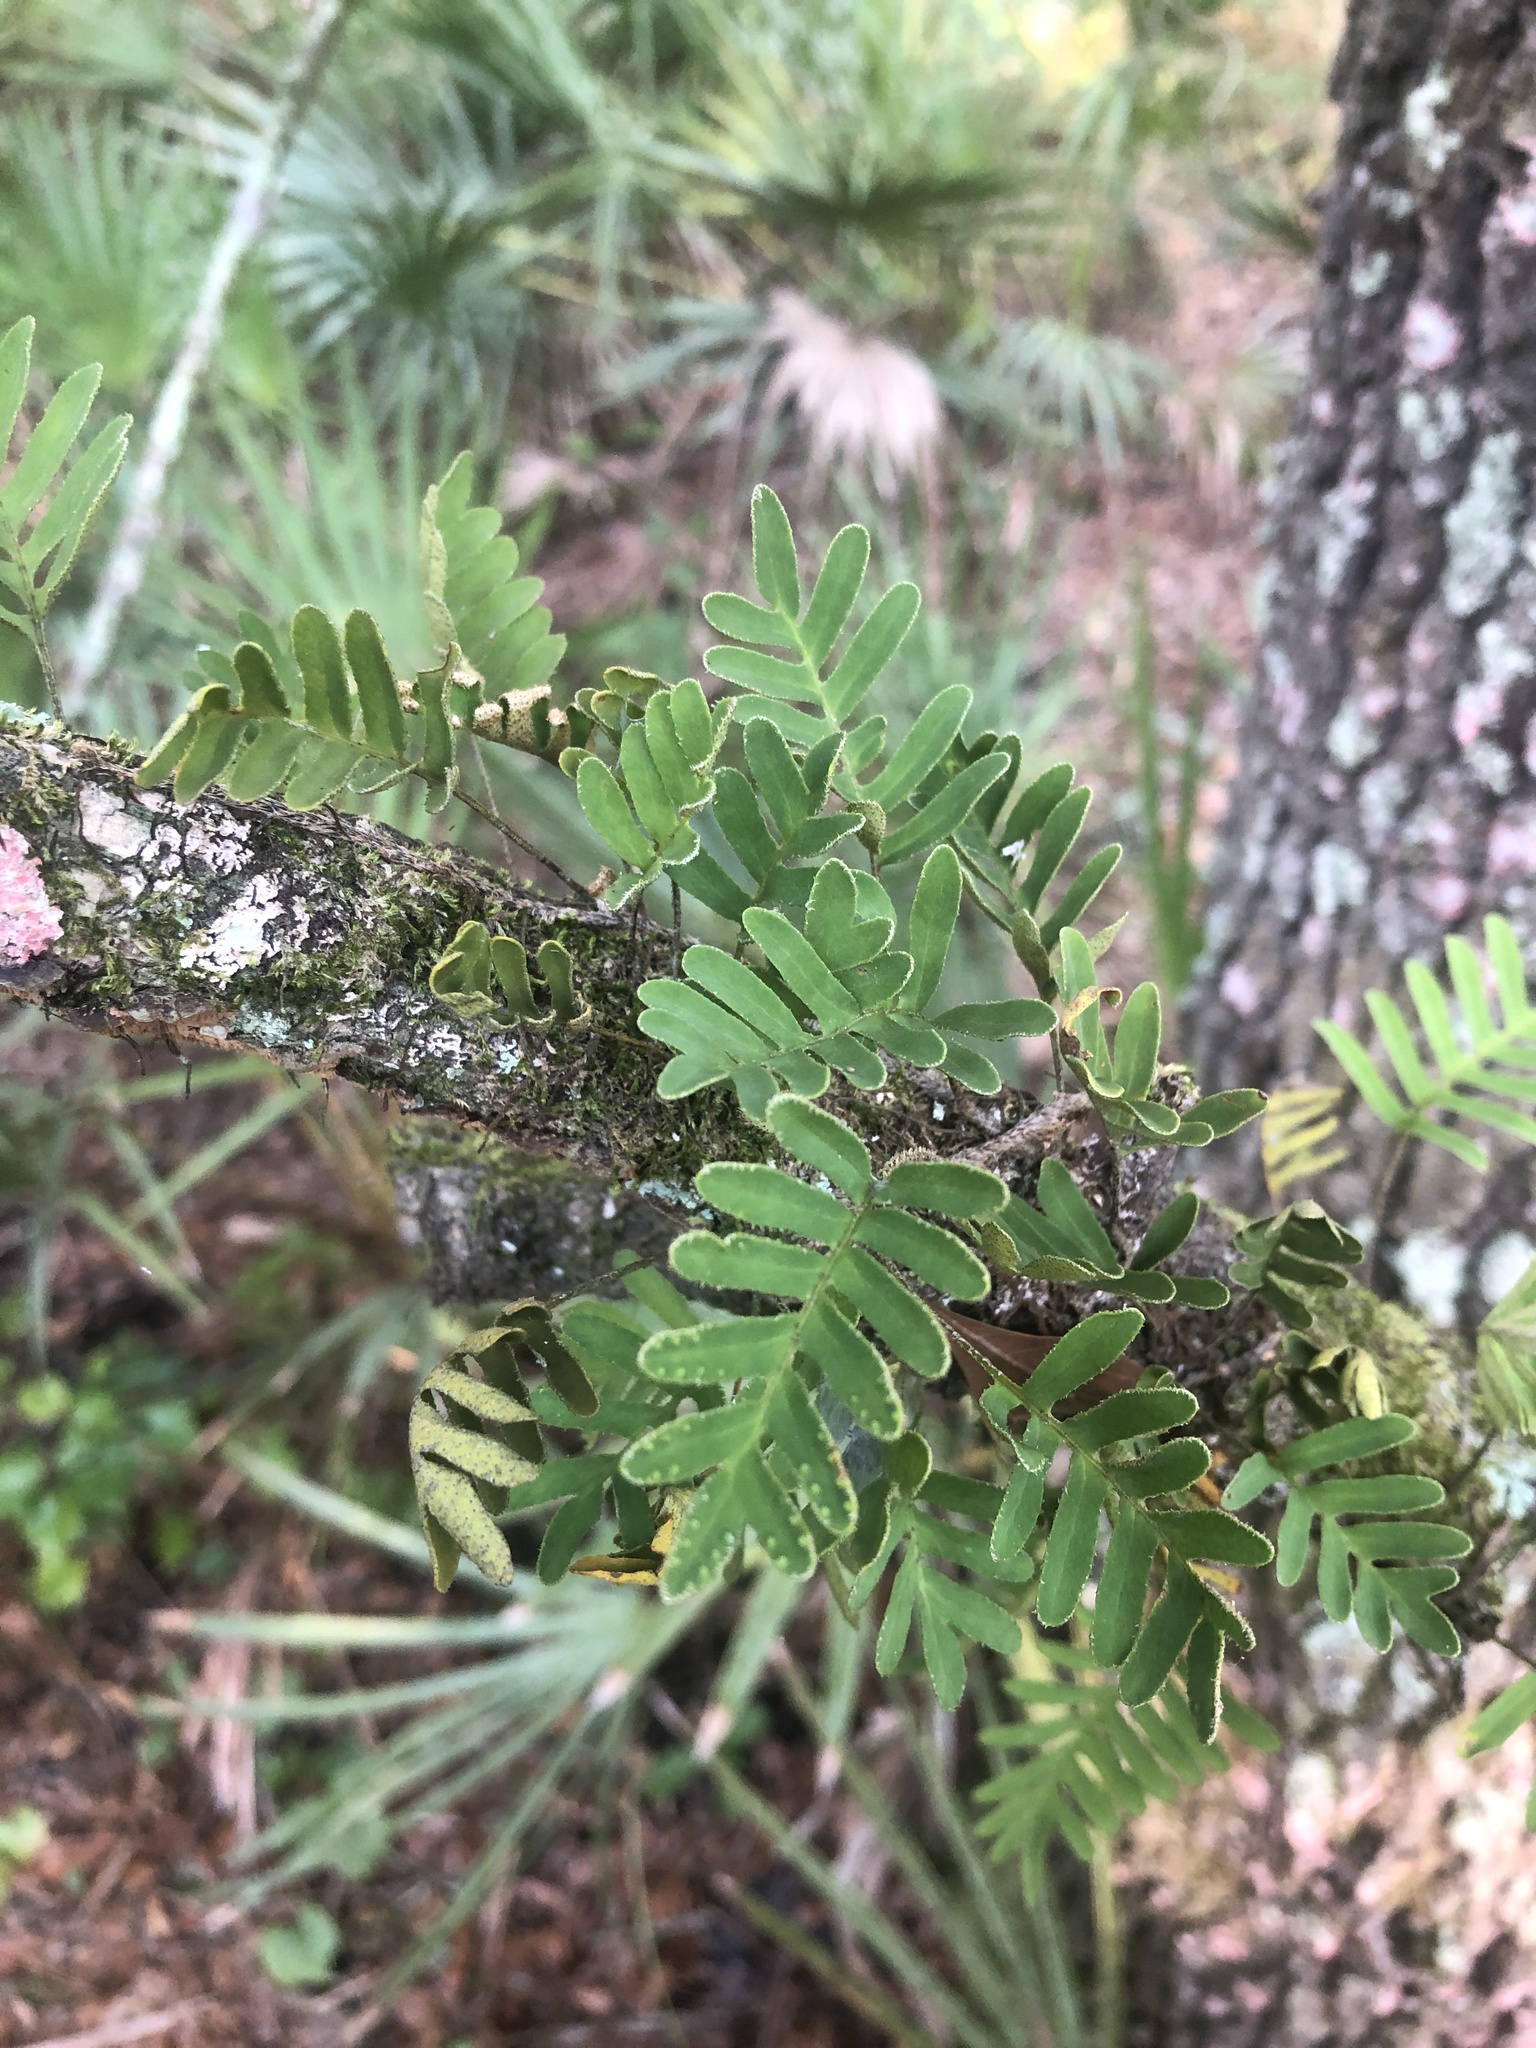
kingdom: Plantae
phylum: Tracheophyta
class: Polypodiopsida
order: Polypodiales
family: Polypodiaceae
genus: Pleopeltis
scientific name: Pleopeltis michauxiana
